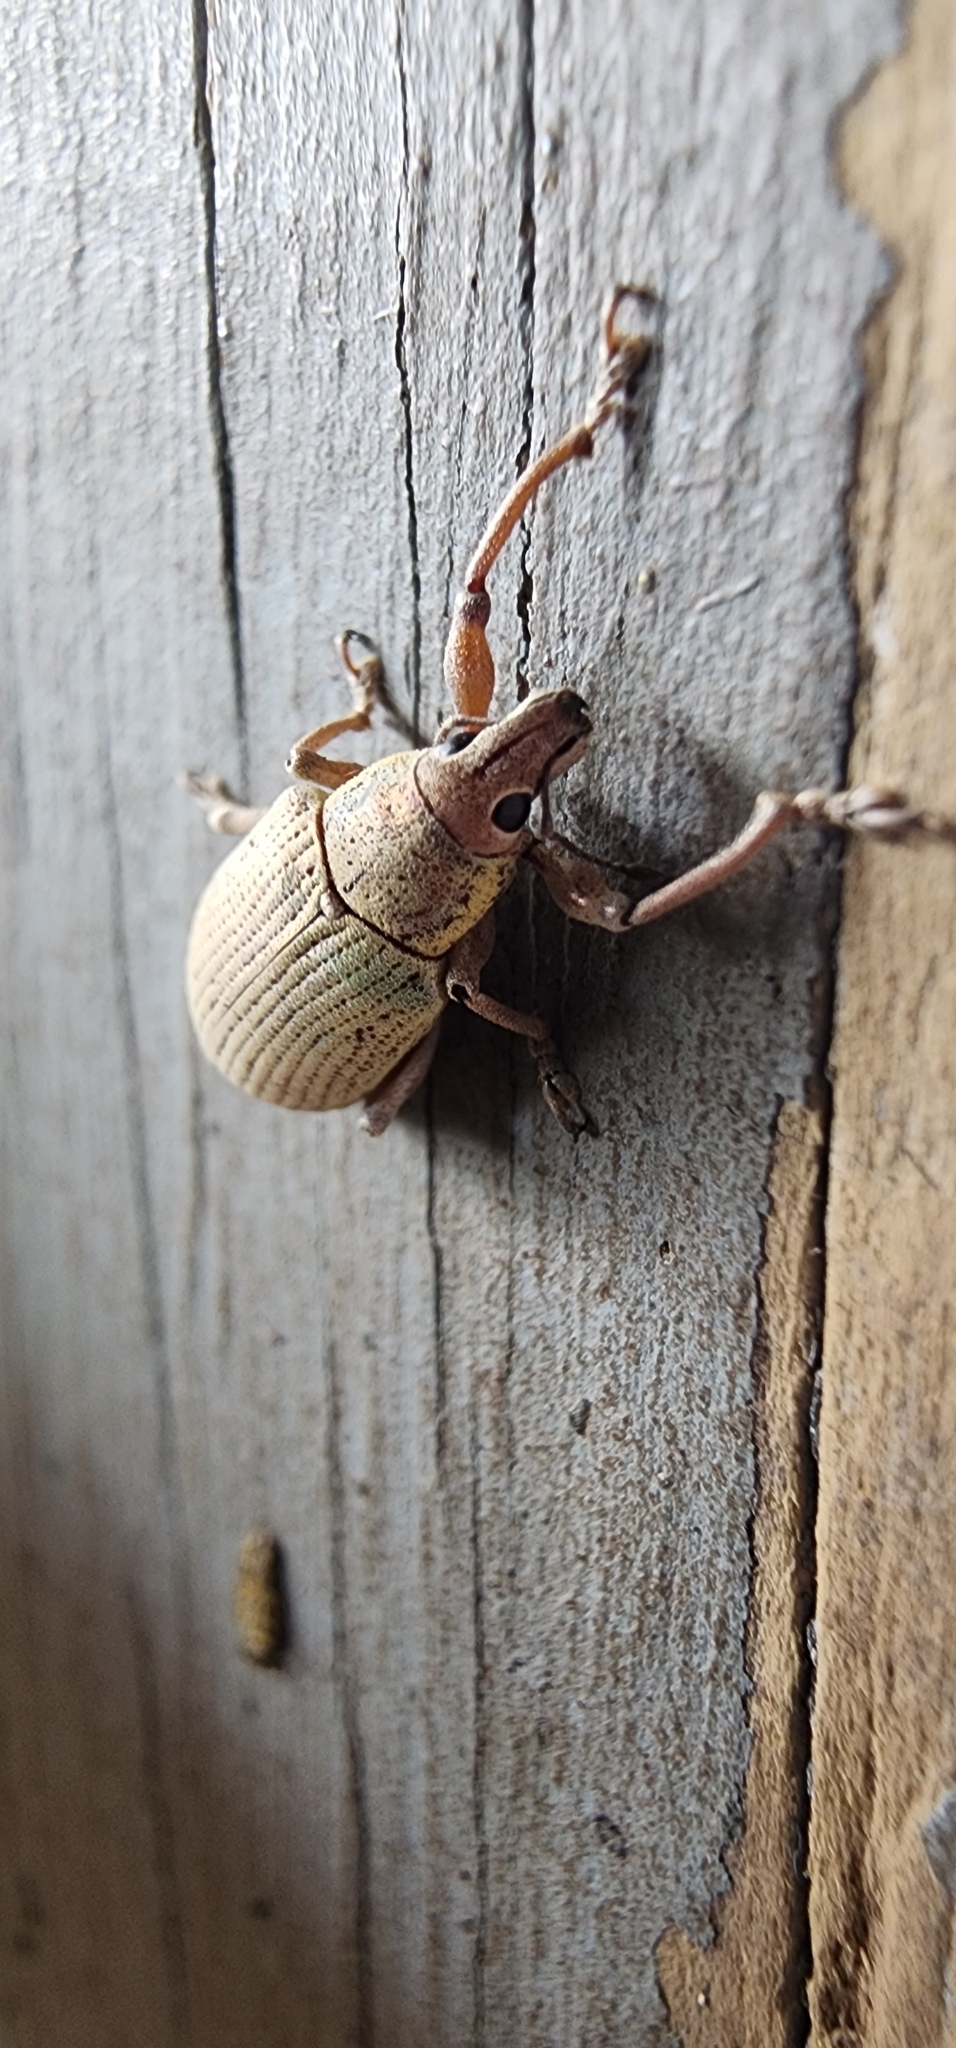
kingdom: Animalia
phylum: Arthropoda
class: Insecta
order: Coleoptera
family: Curculionidae
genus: Pachnaeus
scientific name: Pachnaeus azurescens
